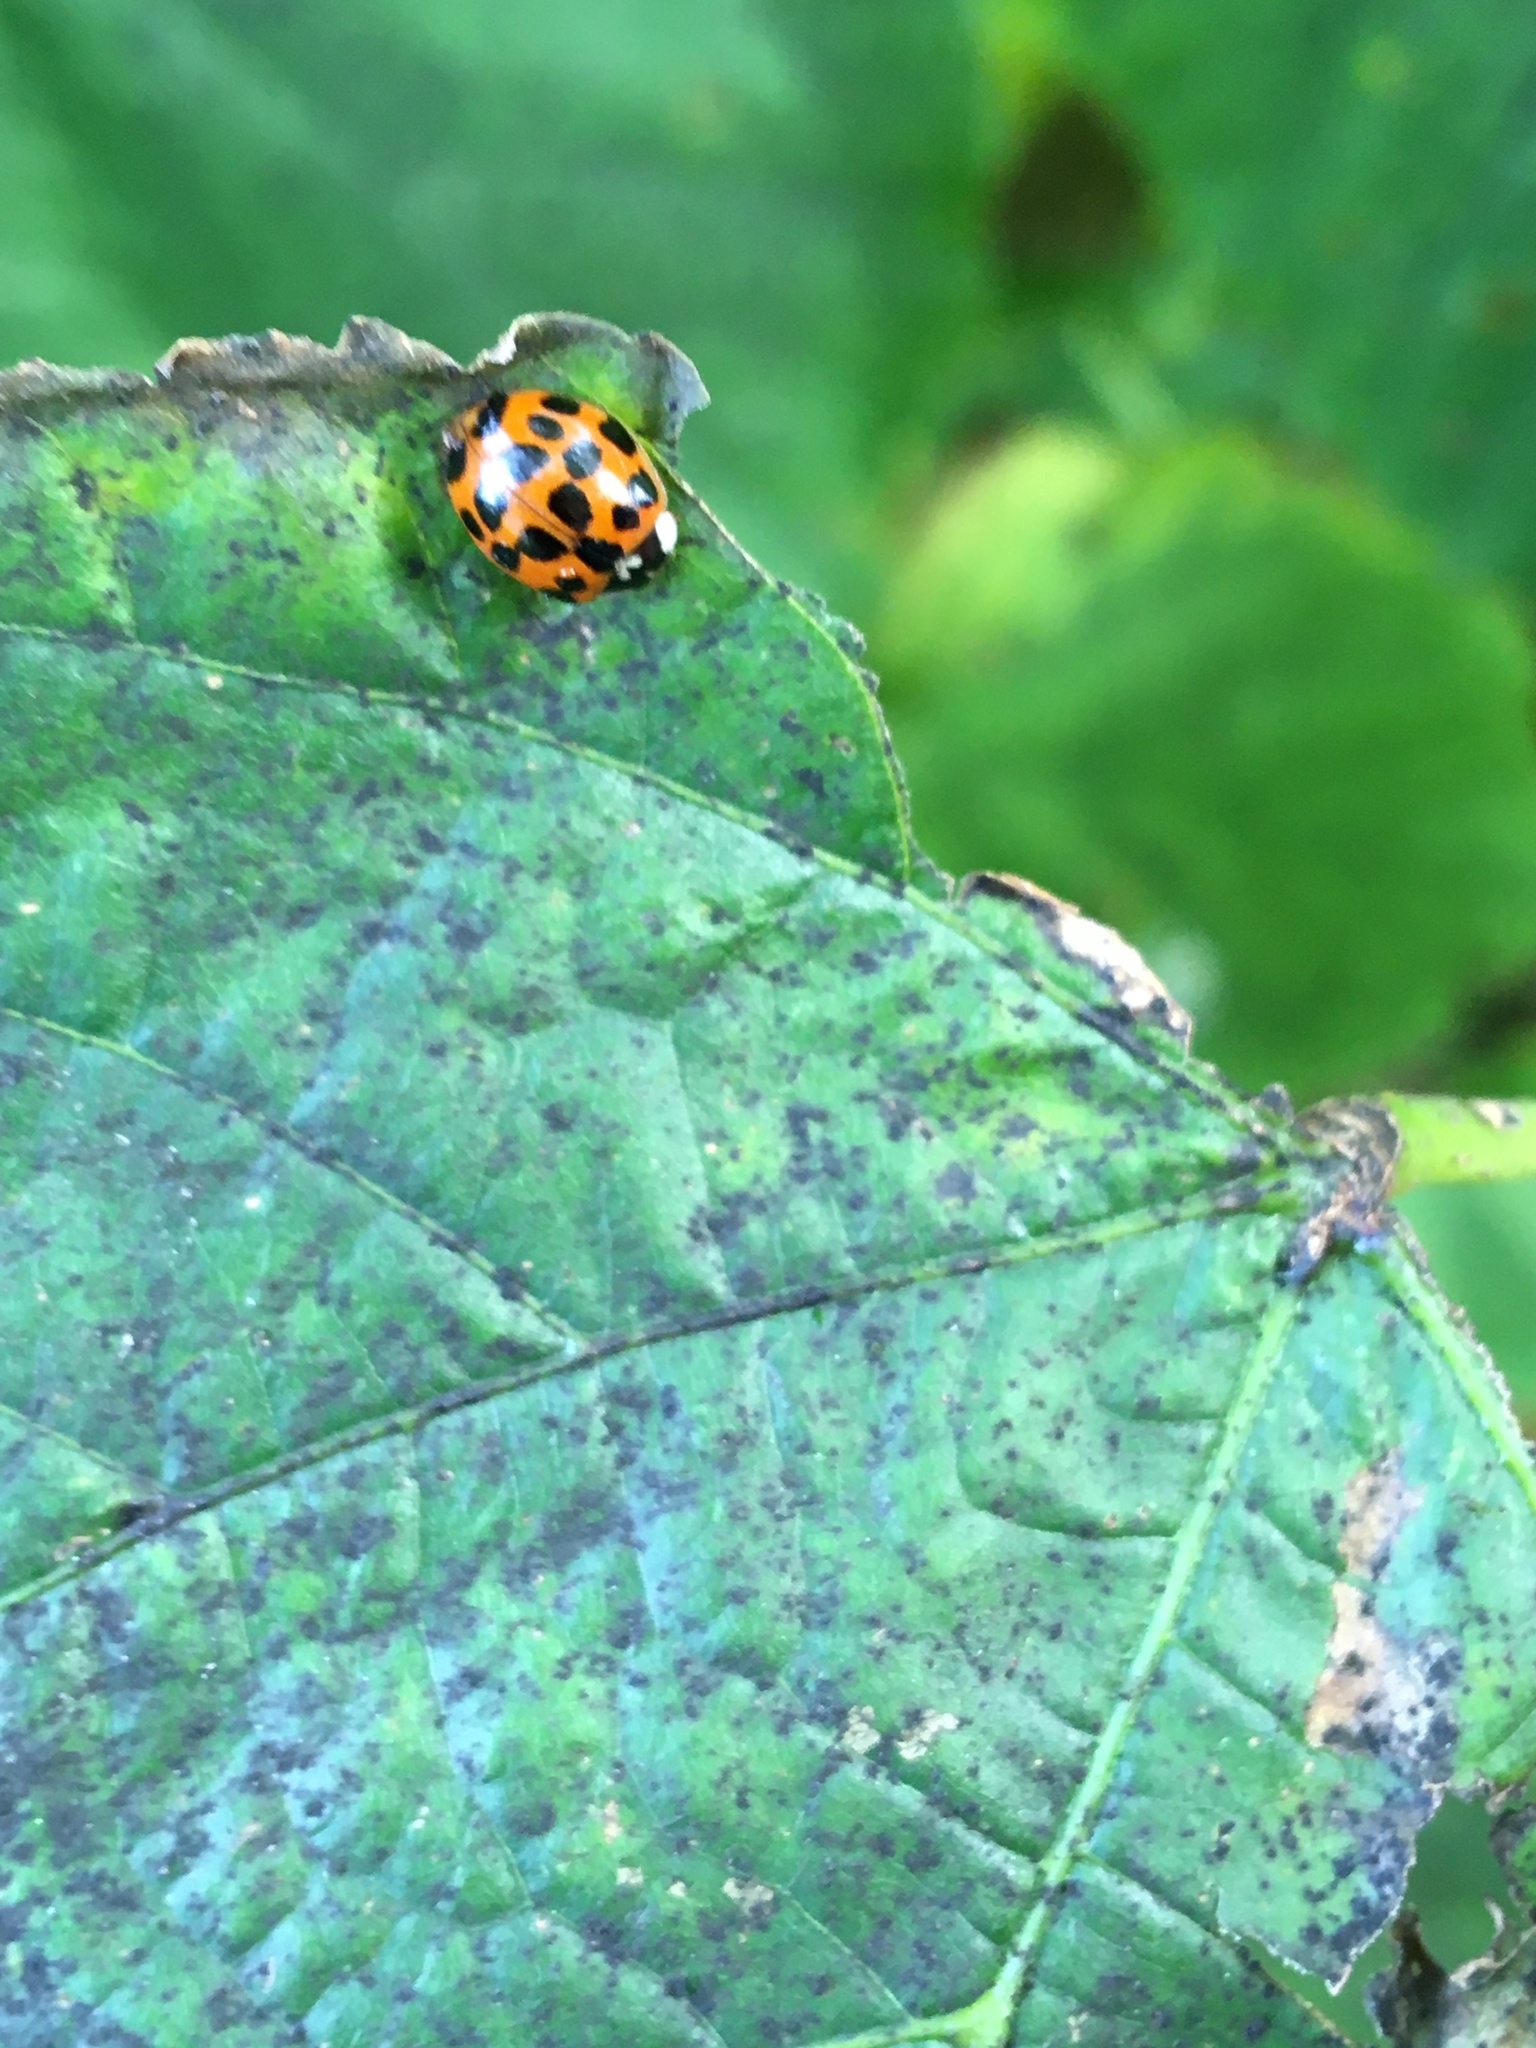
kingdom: Animalia
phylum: Arthropoda
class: Insecta
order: Coleoptera
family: Coccinellidae
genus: Harmonia
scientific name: Harmonia axyridis
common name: Harlequin ladybird
